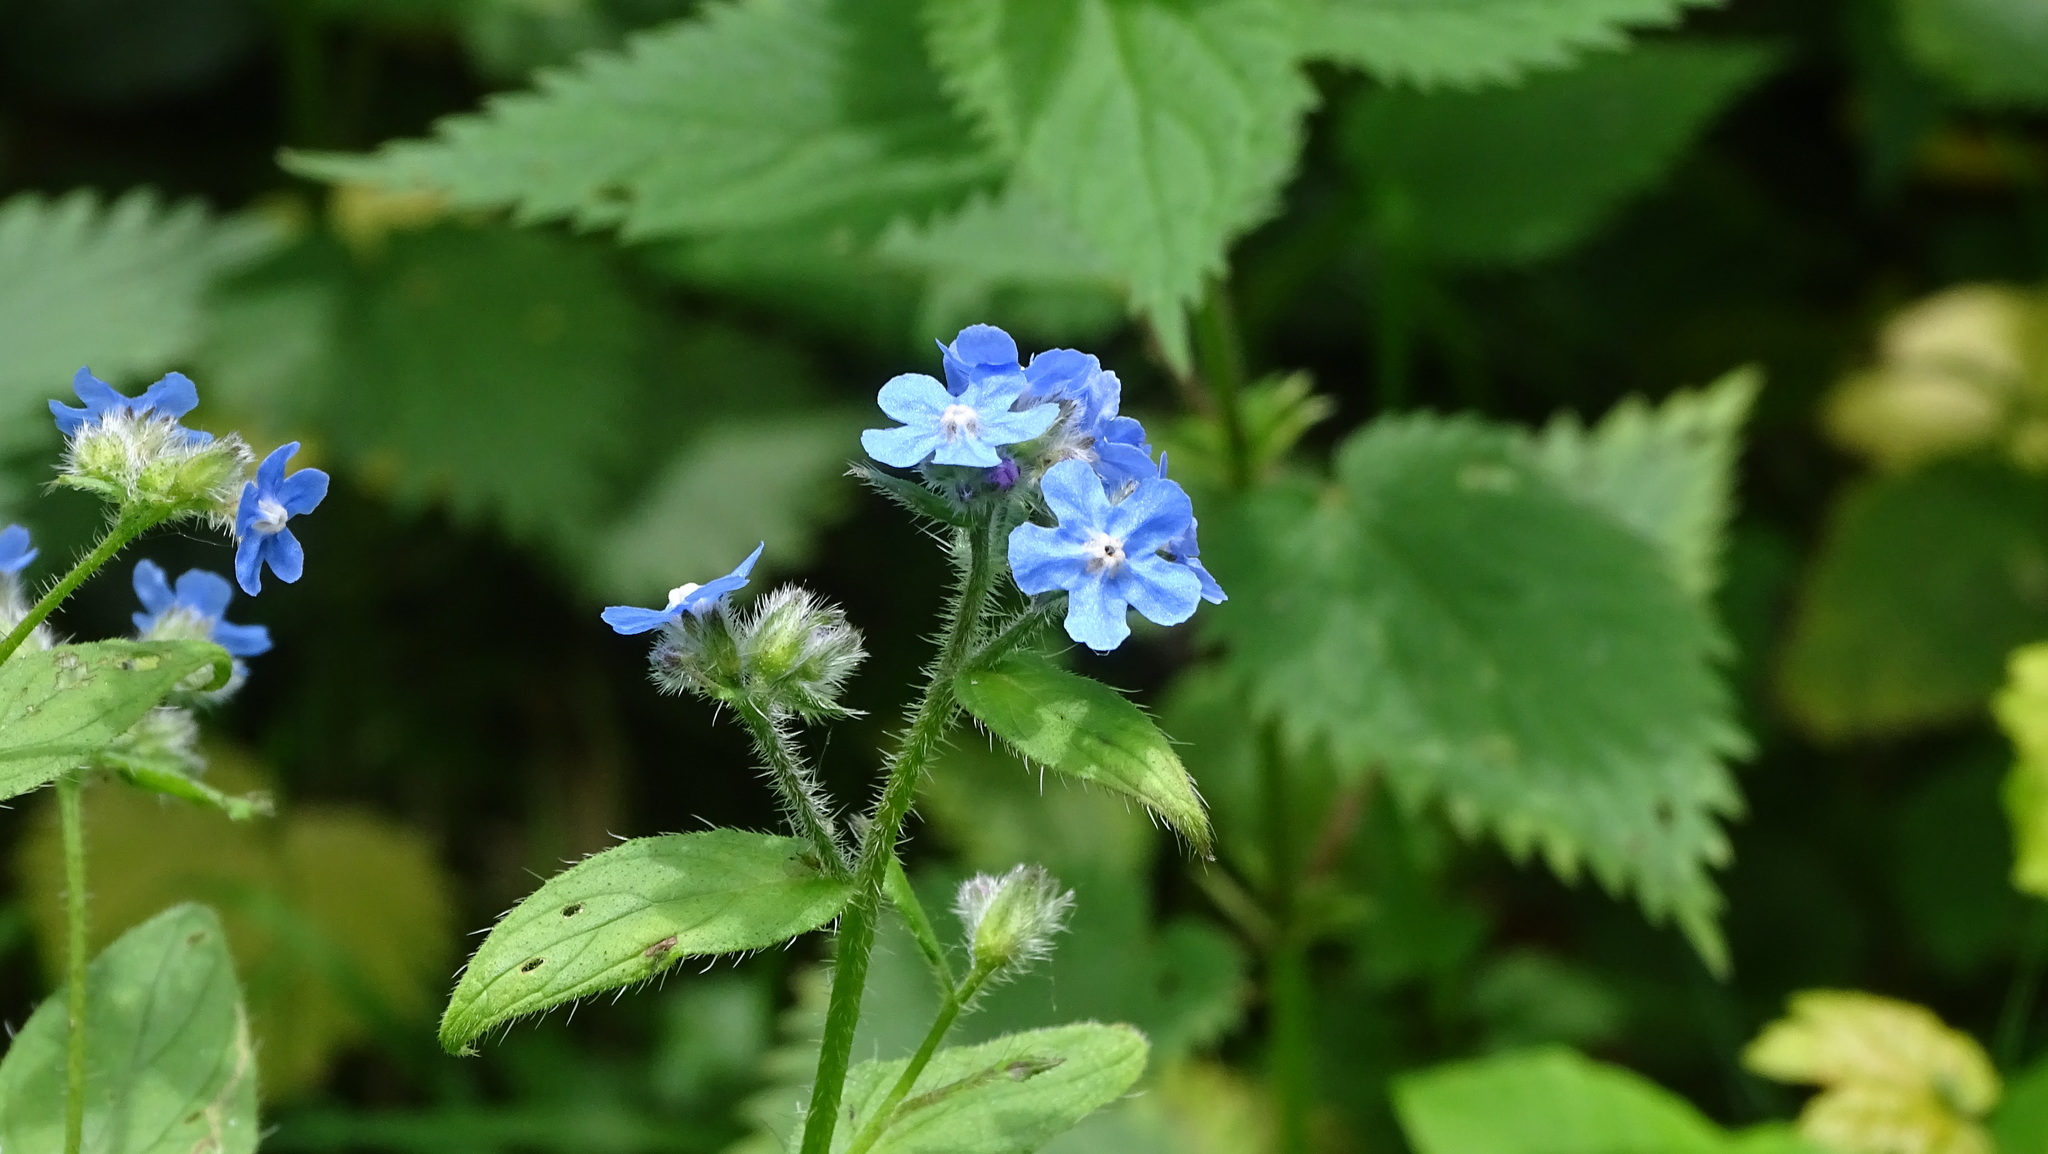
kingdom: Plantae
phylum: Tracheophyta
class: Magnoliopsida
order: Boraginales
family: Boraginaceae
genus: Pentaglottis
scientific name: Pentaglottis sempervirens
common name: Green alkanet
